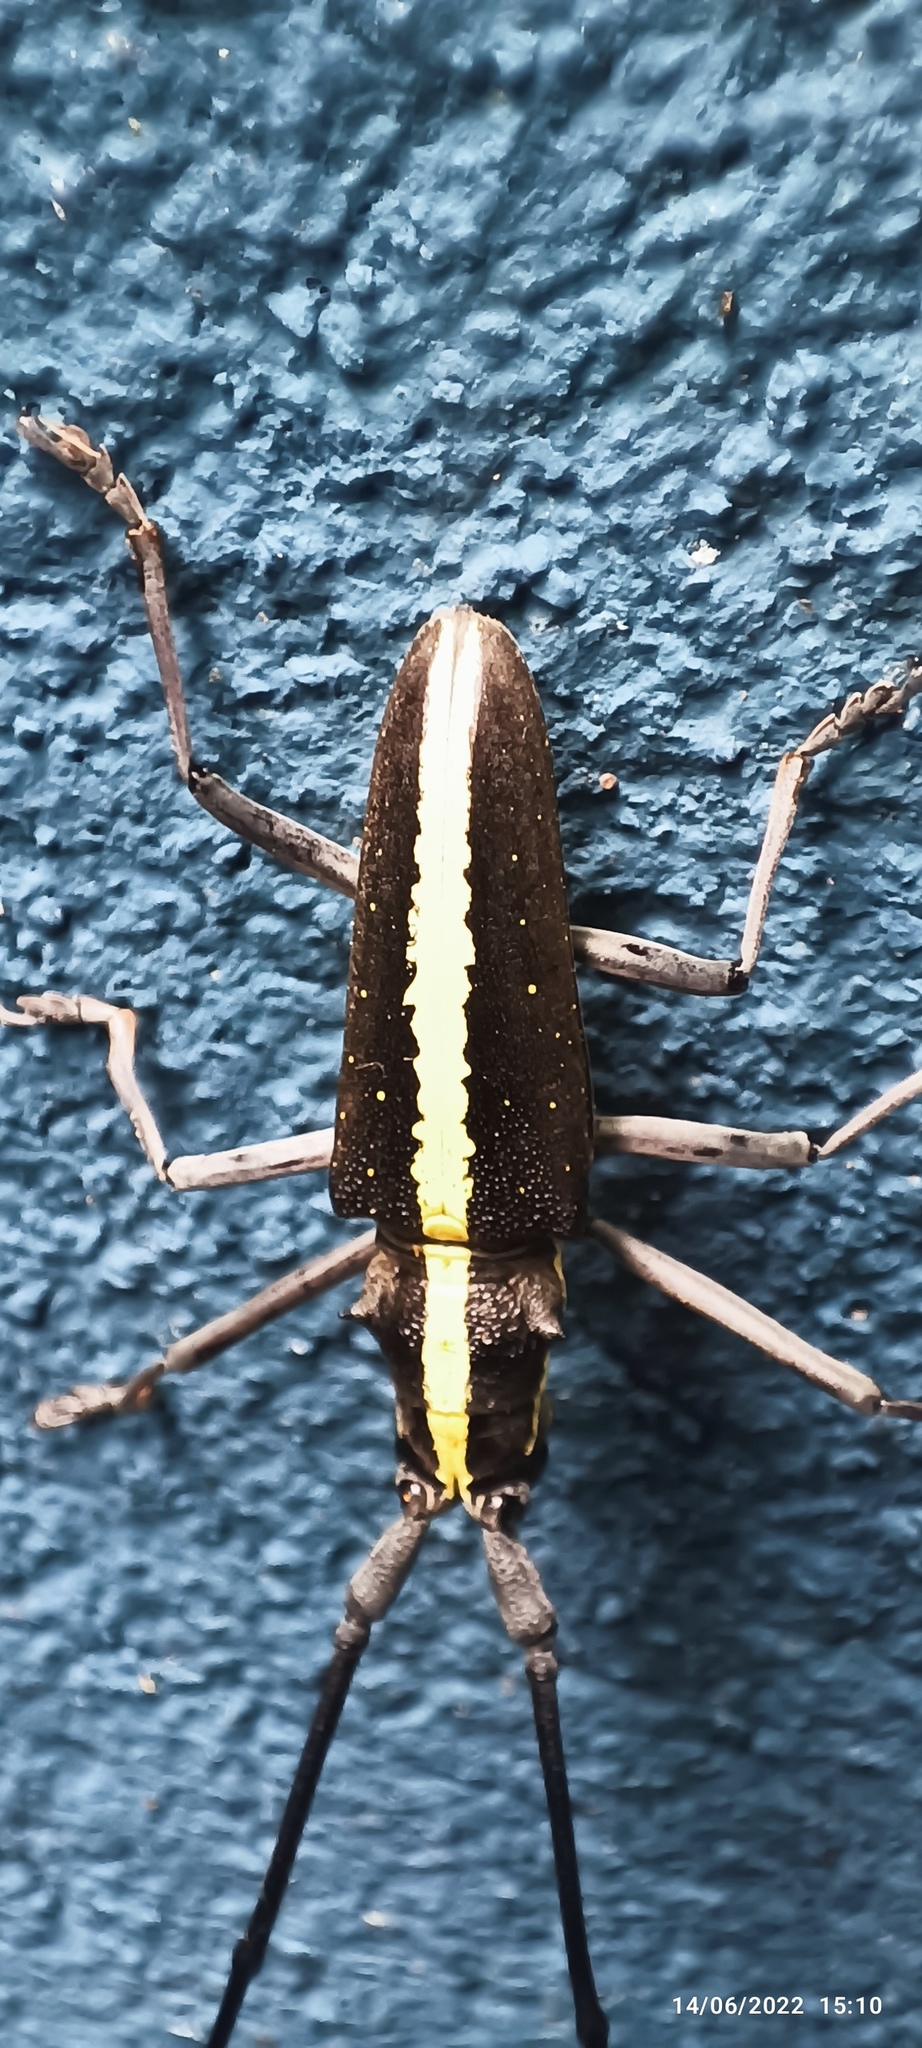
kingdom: Animalia
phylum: Arthropoda
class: Insecta
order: Coleoptera
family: Cerambycidae
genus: Taeniotes
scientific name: Taeniotes scalatus
